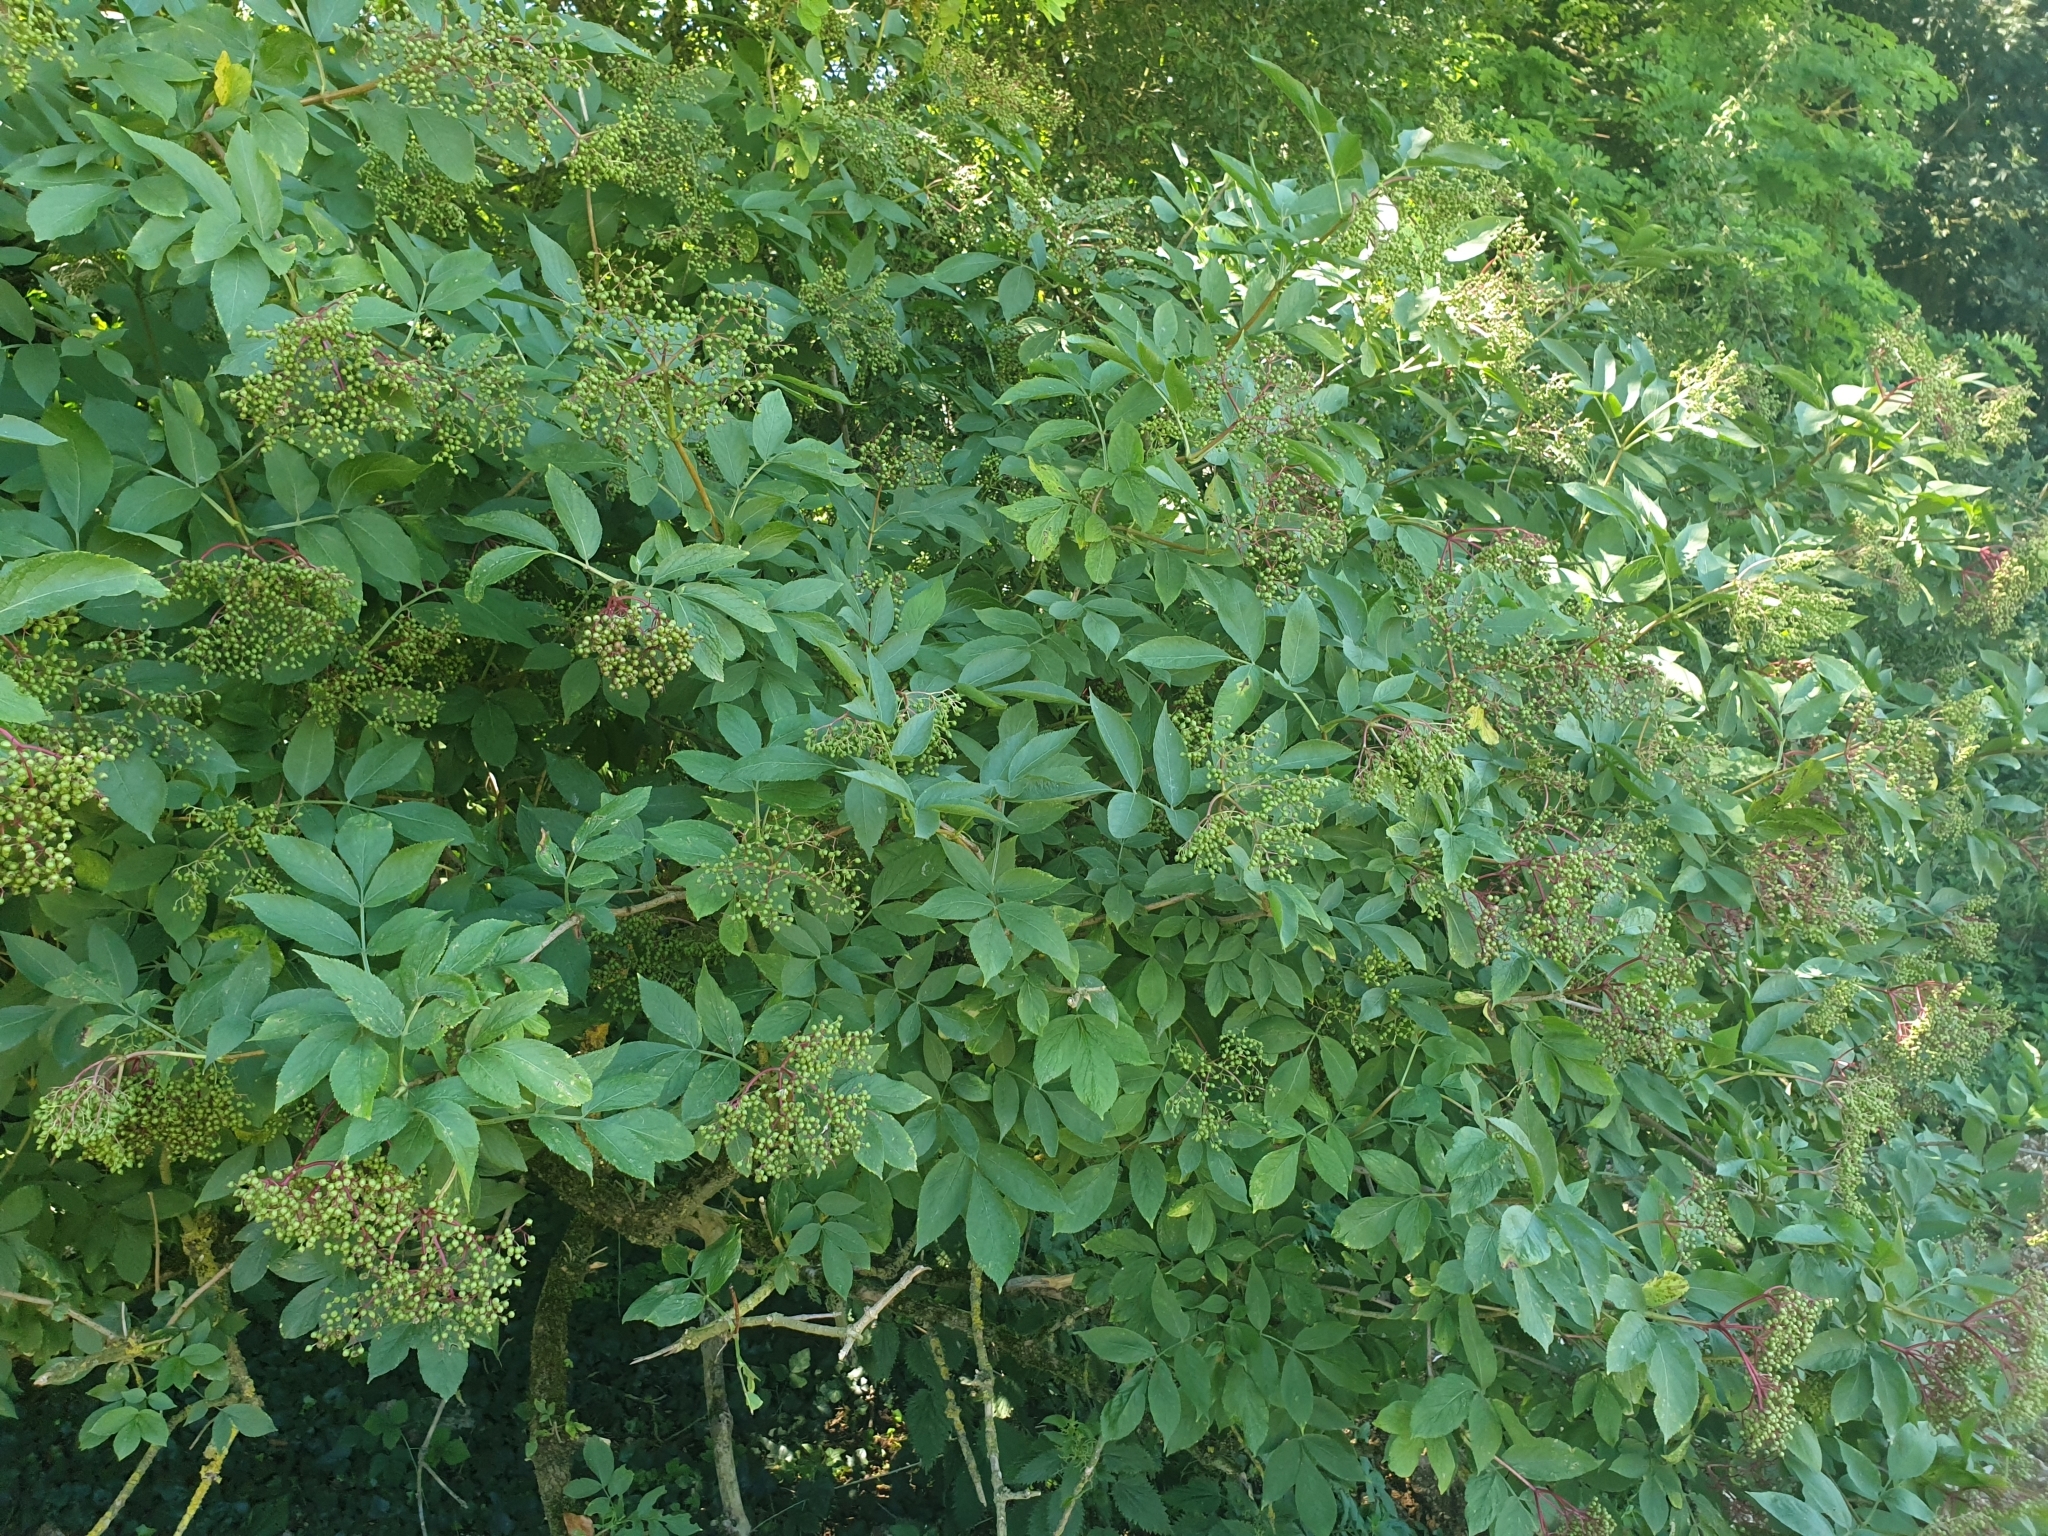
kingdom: Plantae
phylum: Tracheophyta
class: Magnoliopsida
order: Dipsacales
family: Viburnaceae
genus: Sambucus
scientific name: Sambucus nigra
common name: Elder
